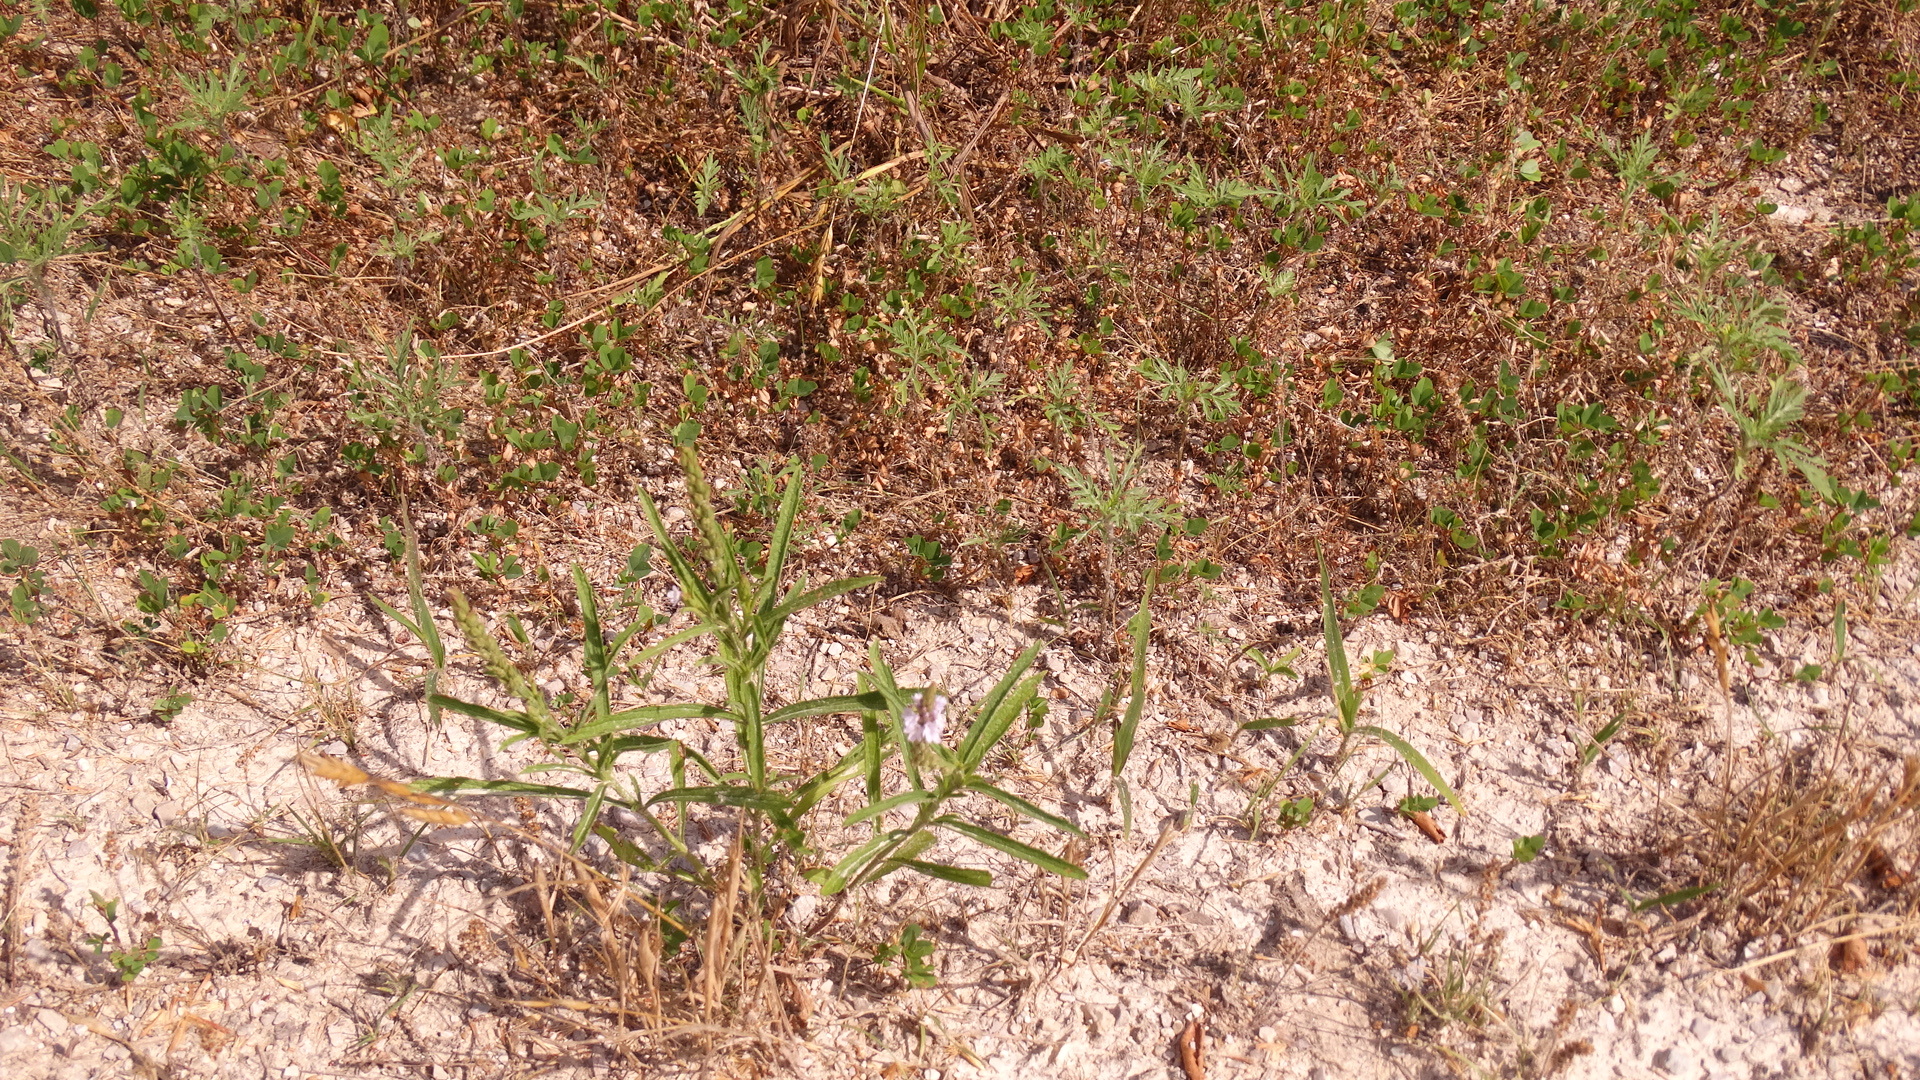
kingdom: Plantae
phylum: Tracheophyta
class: Magnoliopsida
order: Lamiales
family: Verbenaceae
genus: Verbena
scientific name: Verbena simplex
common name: Narrow-leaf vervain
